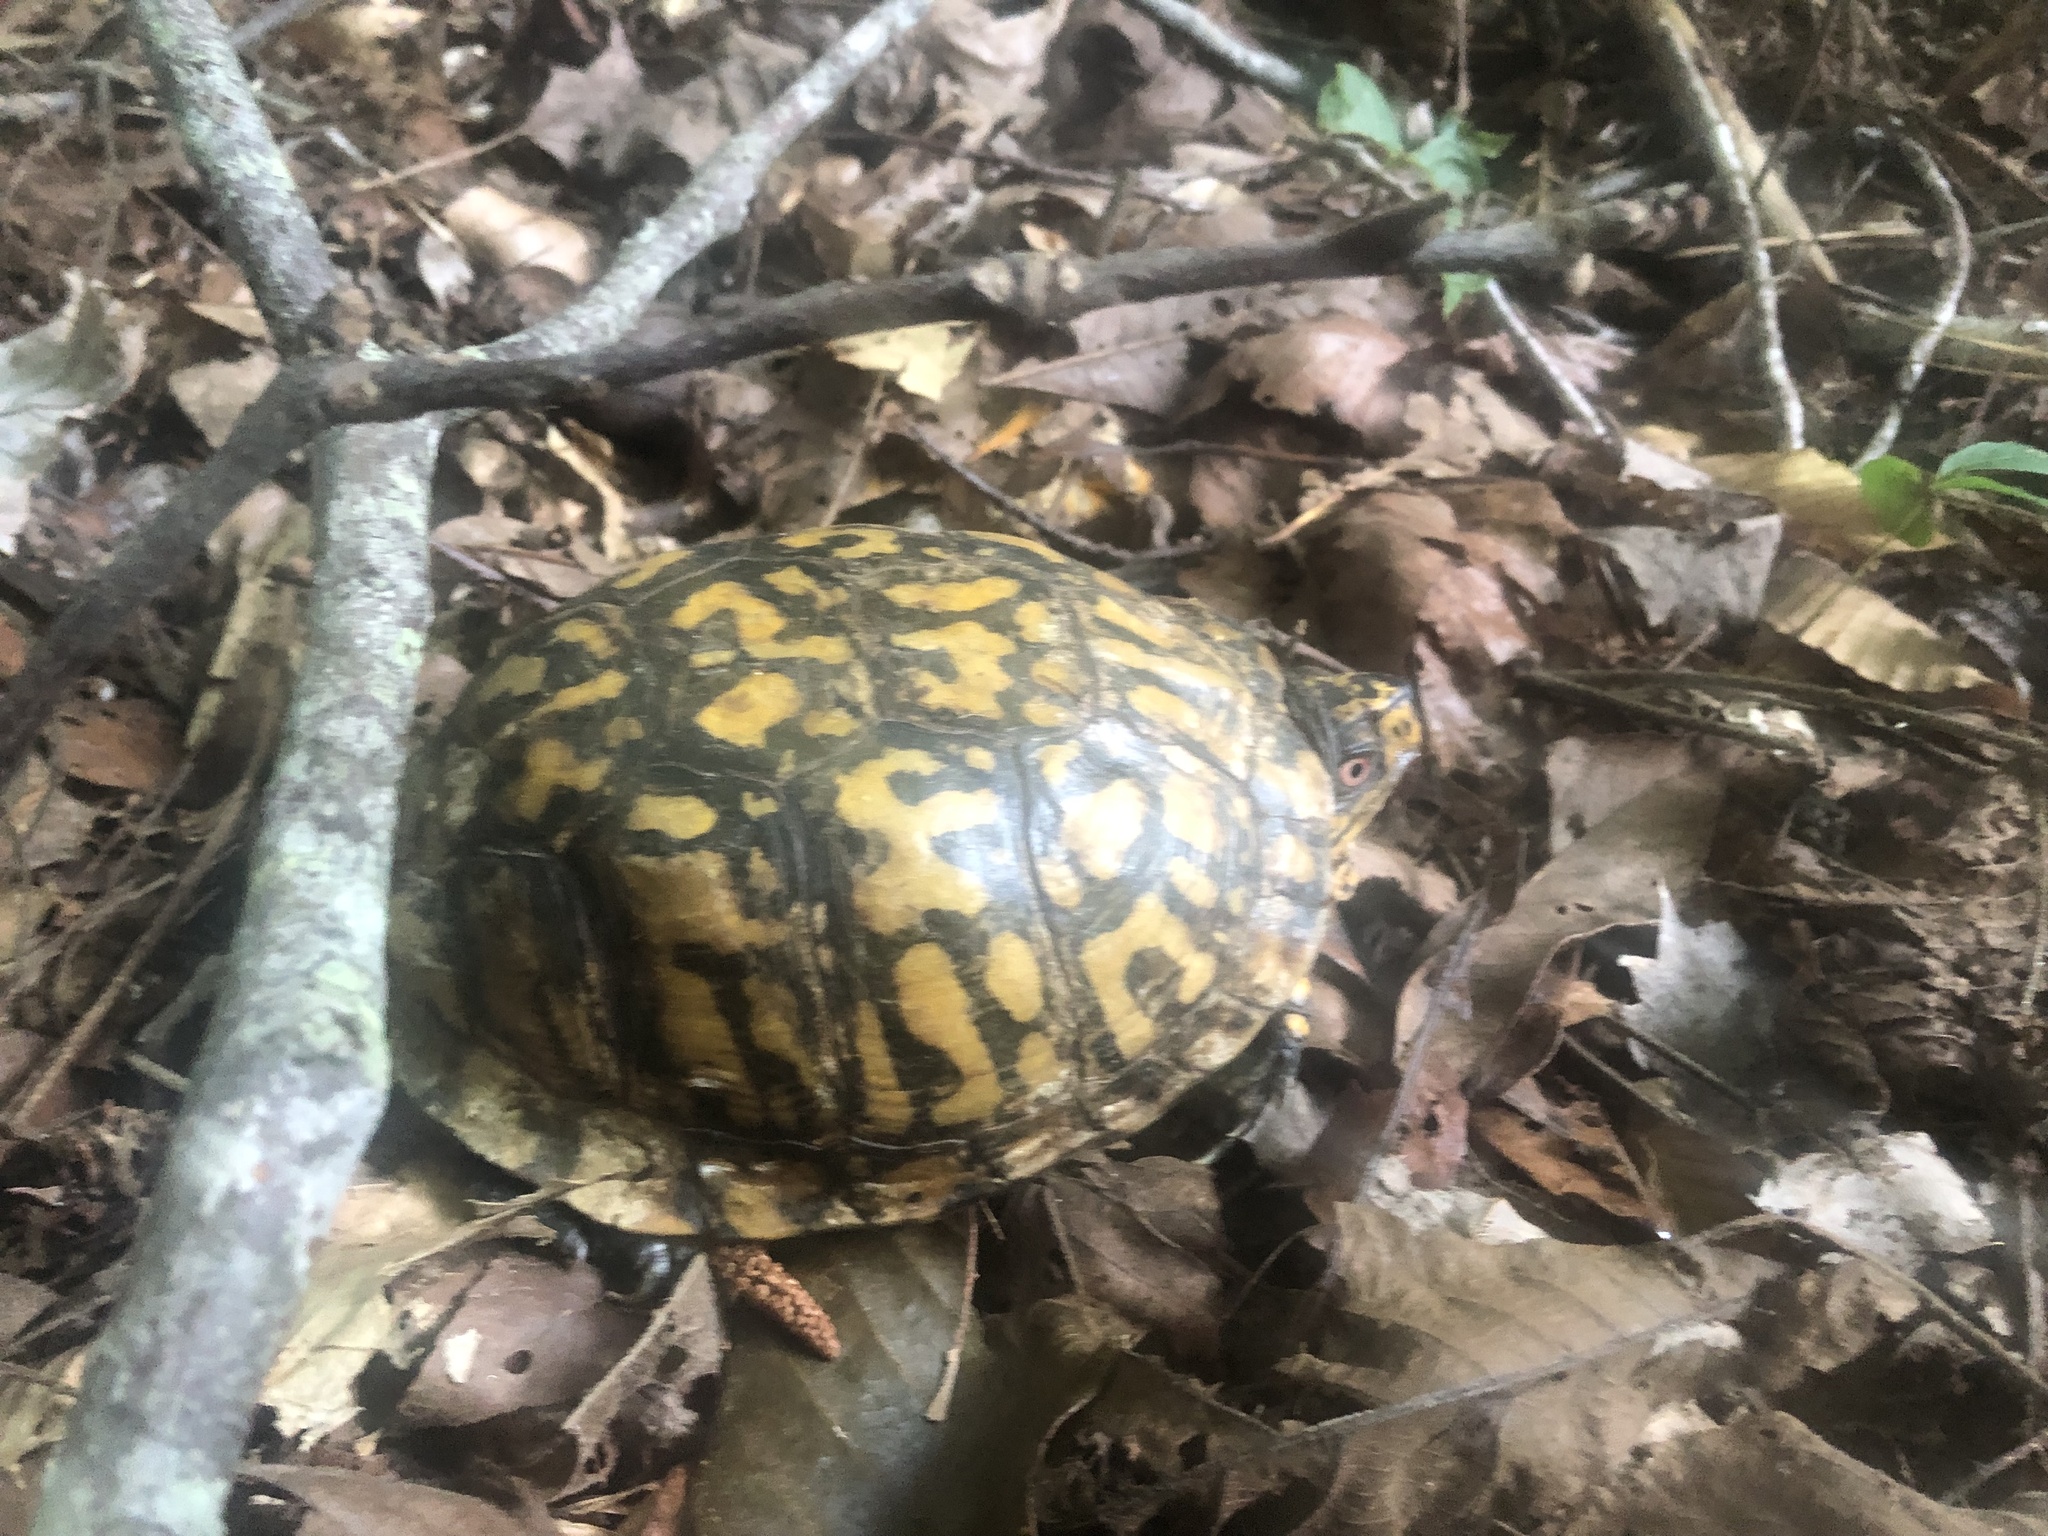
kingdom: Animalia
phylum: Chordata
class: Testudines
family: Emydidae
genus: Terrapene
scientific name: Terrapene carolina
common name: Common box turtle
